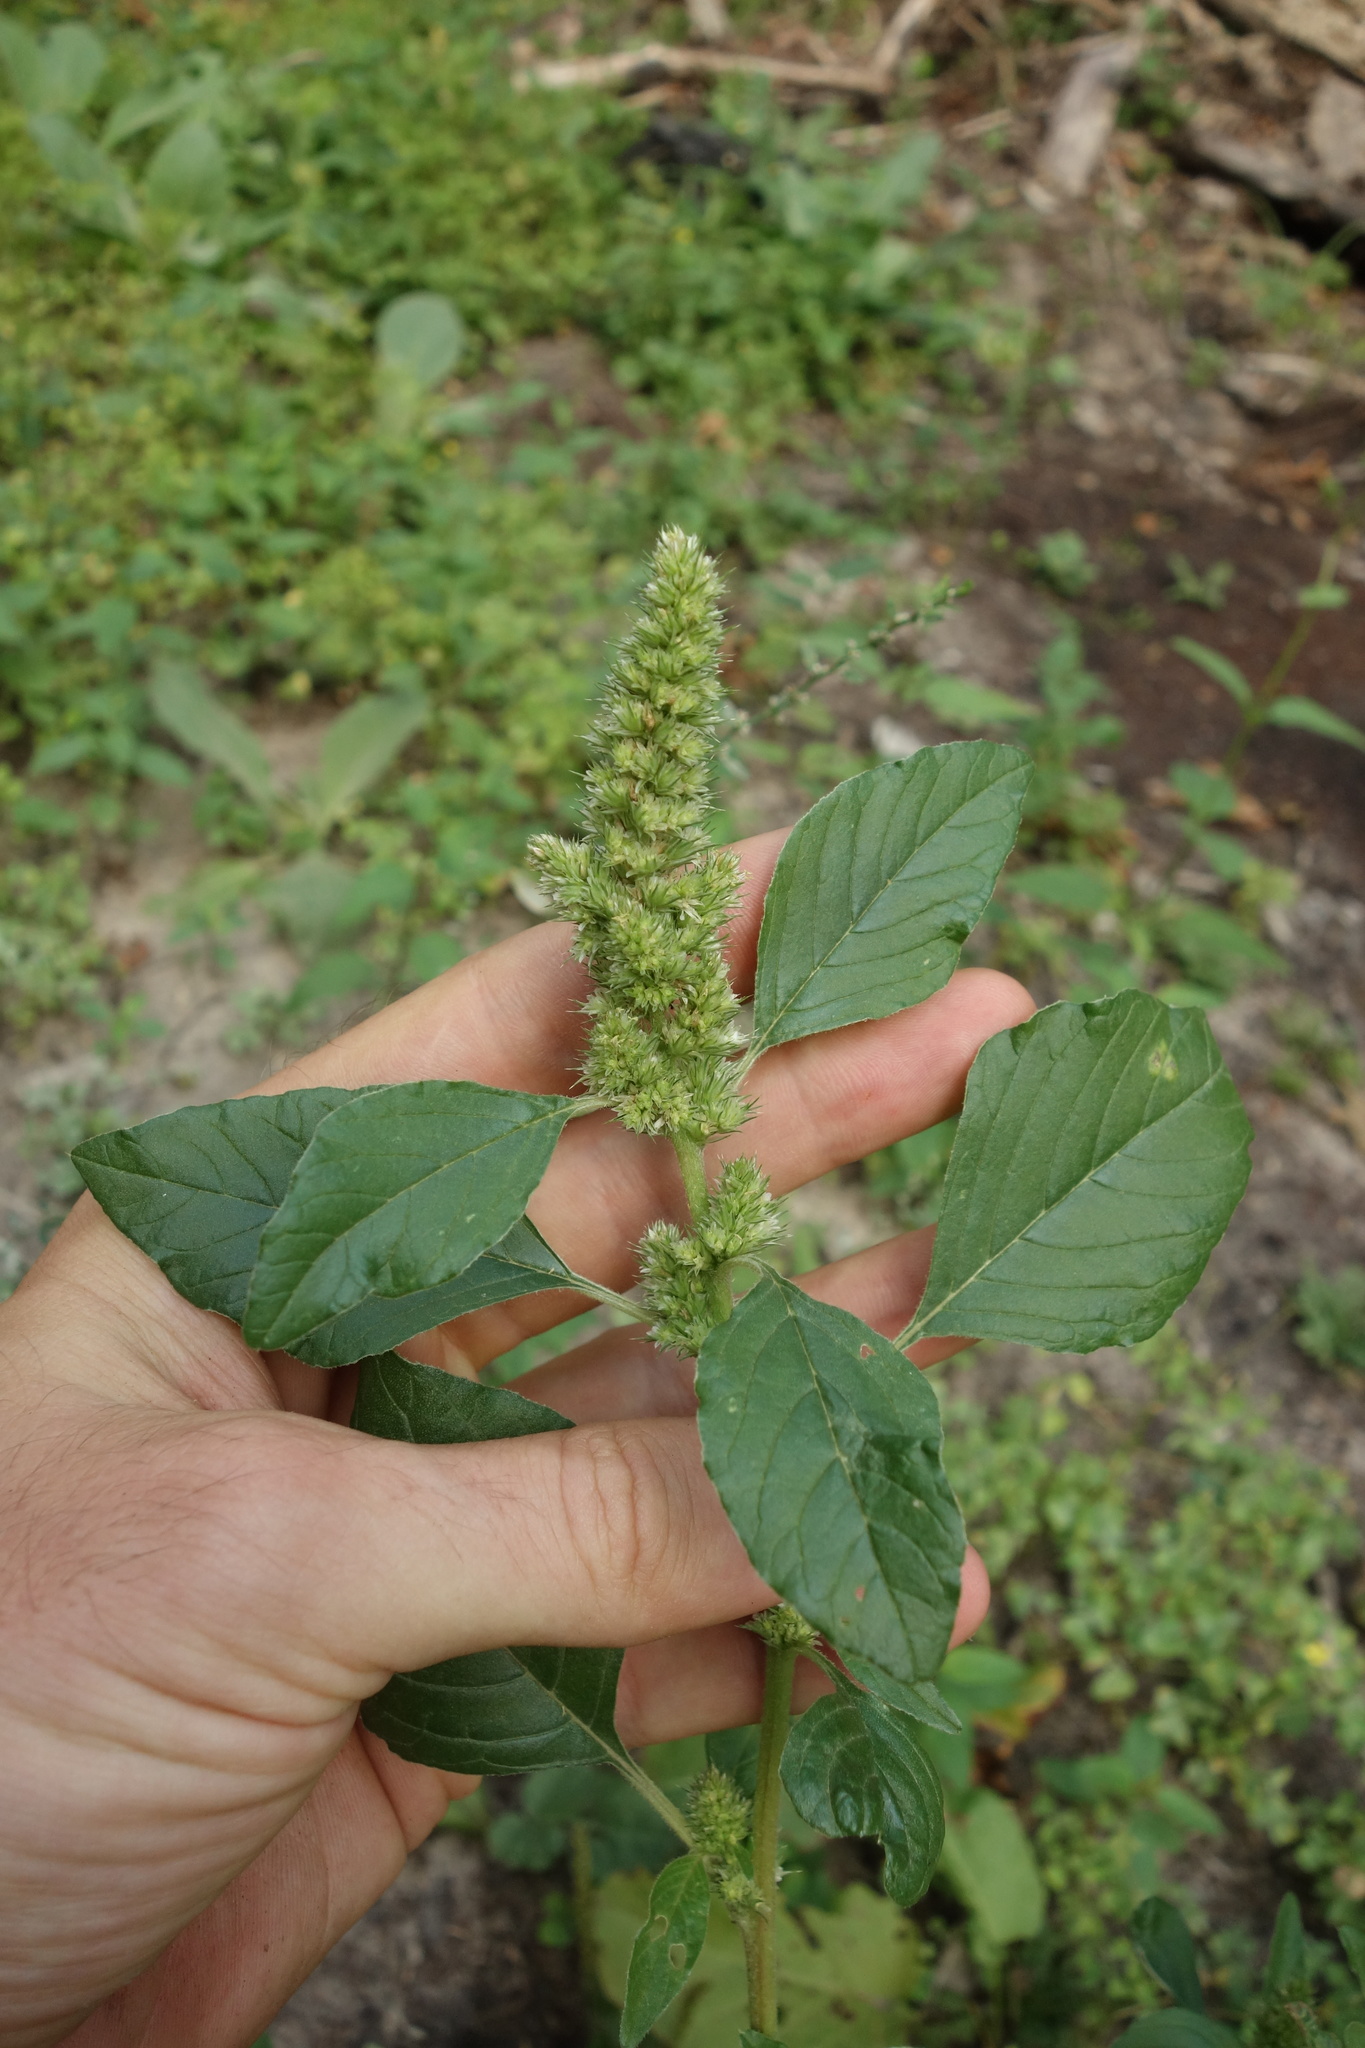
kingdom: Plantae
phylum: Tracheophyta
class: Magnoliopsida
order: Caryophyllales
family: Amaranthaceae
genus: Amaranthus
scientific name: Amaranthus retroflexus
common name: Redroot amaranth
